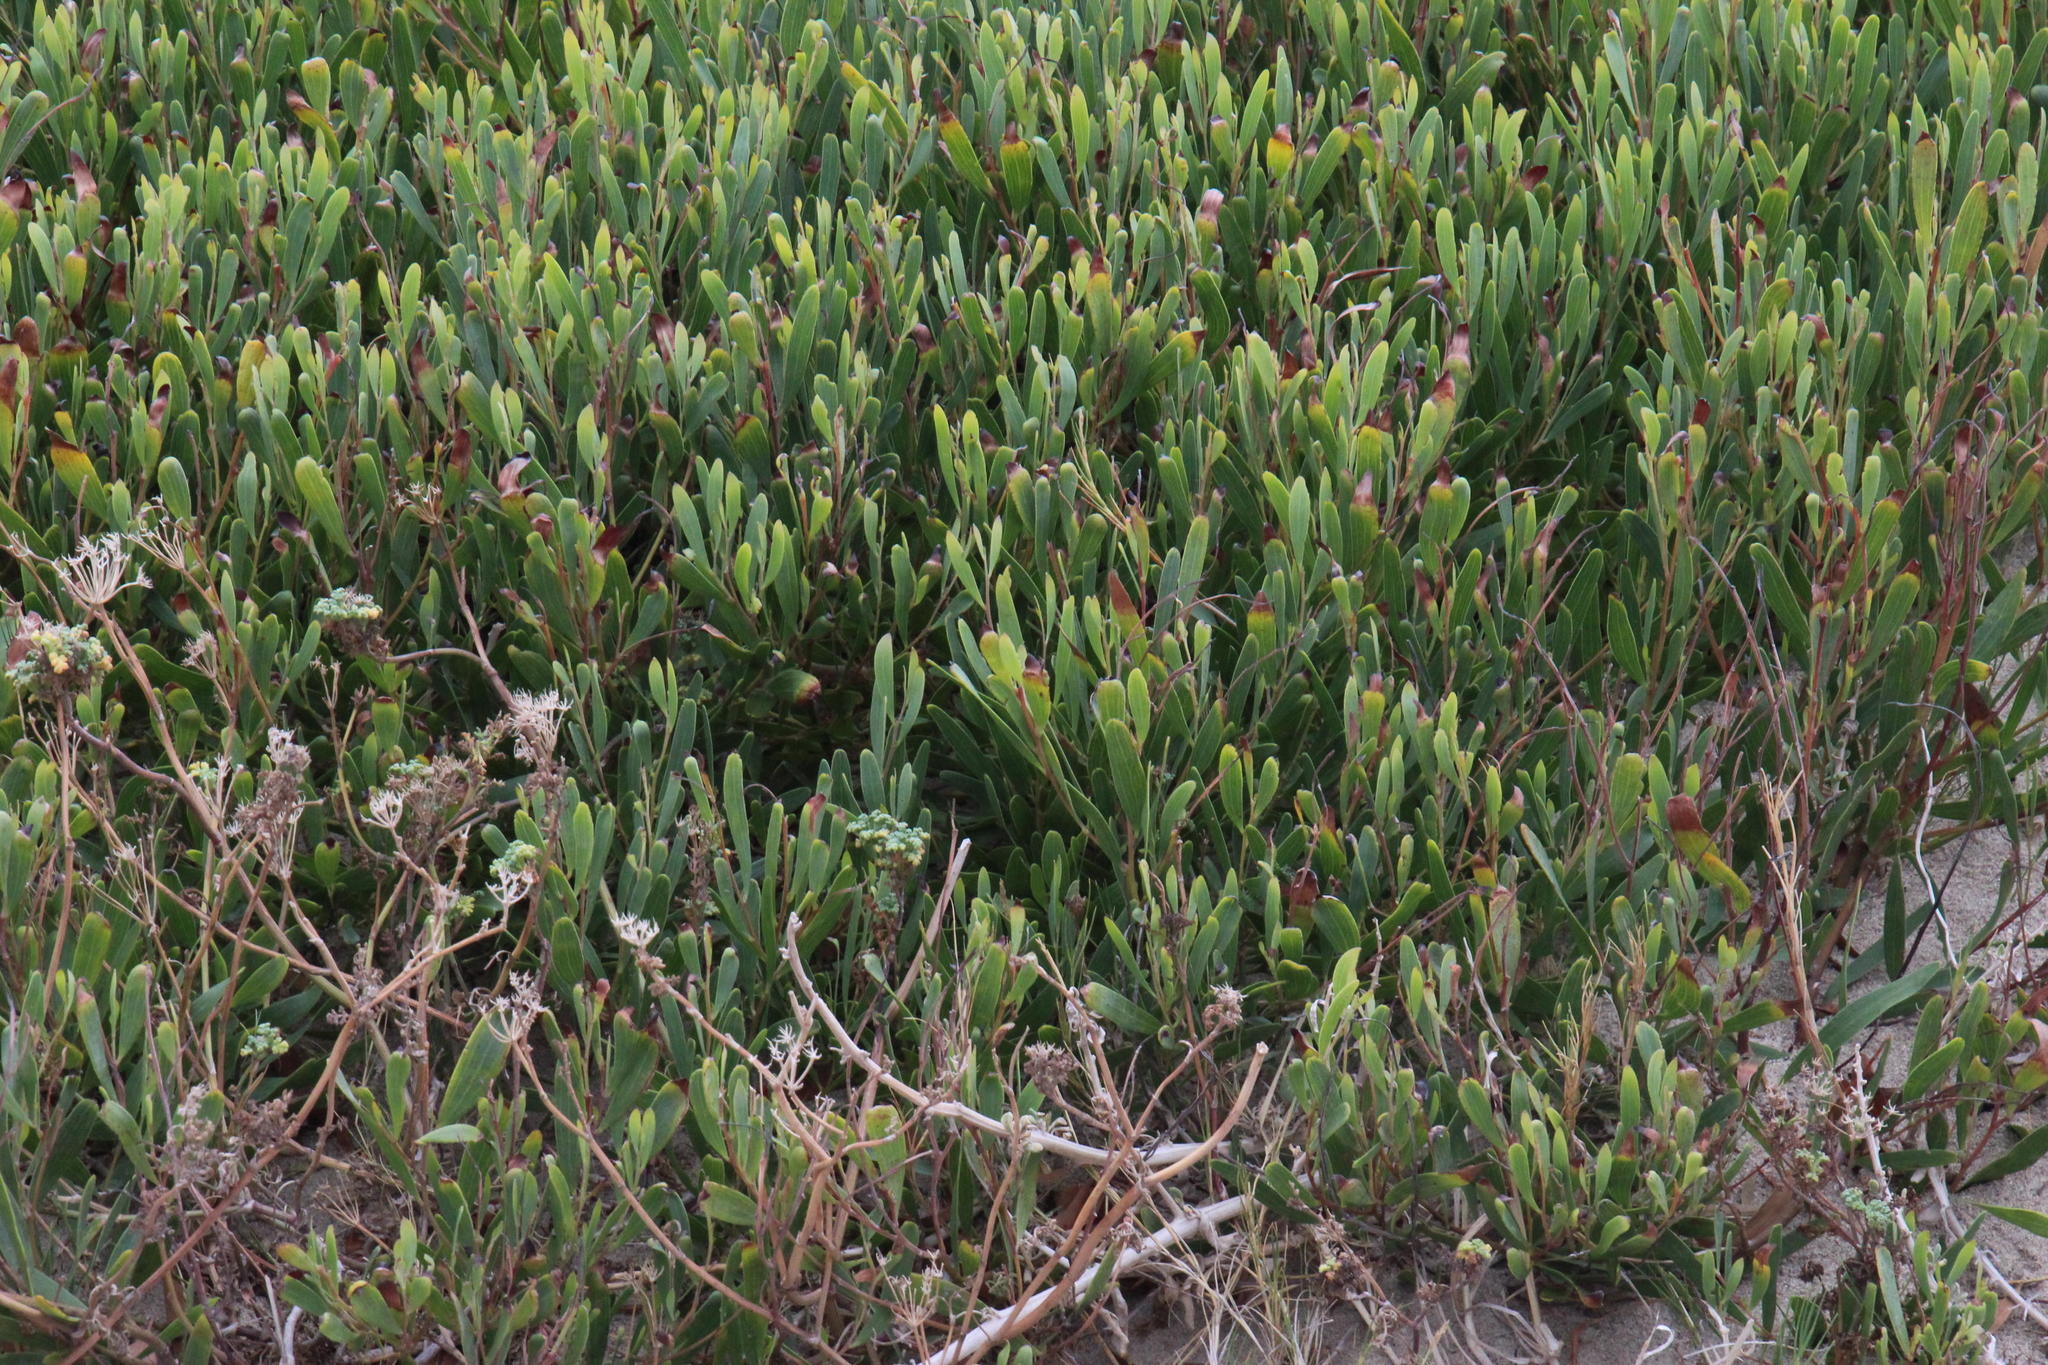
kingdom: Plantae
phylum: Tracheophyta
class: Magnoliopsida
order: Fabales
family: Fabaceae
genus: Acacia
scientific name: Acacia cyclops
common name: Coastal wattle
